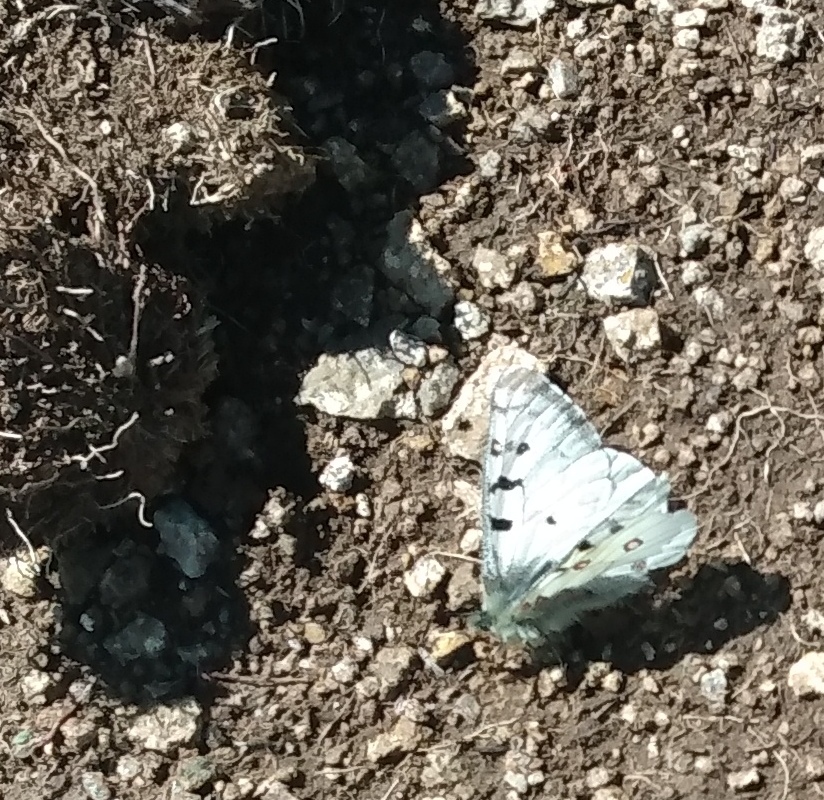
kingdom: Animalia
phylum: Arthropoda
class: Insecta
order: Lepidoptera
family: Papilionidae
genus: Parnassius
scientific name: Parnassius smintheus
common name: Mountain parnassian
